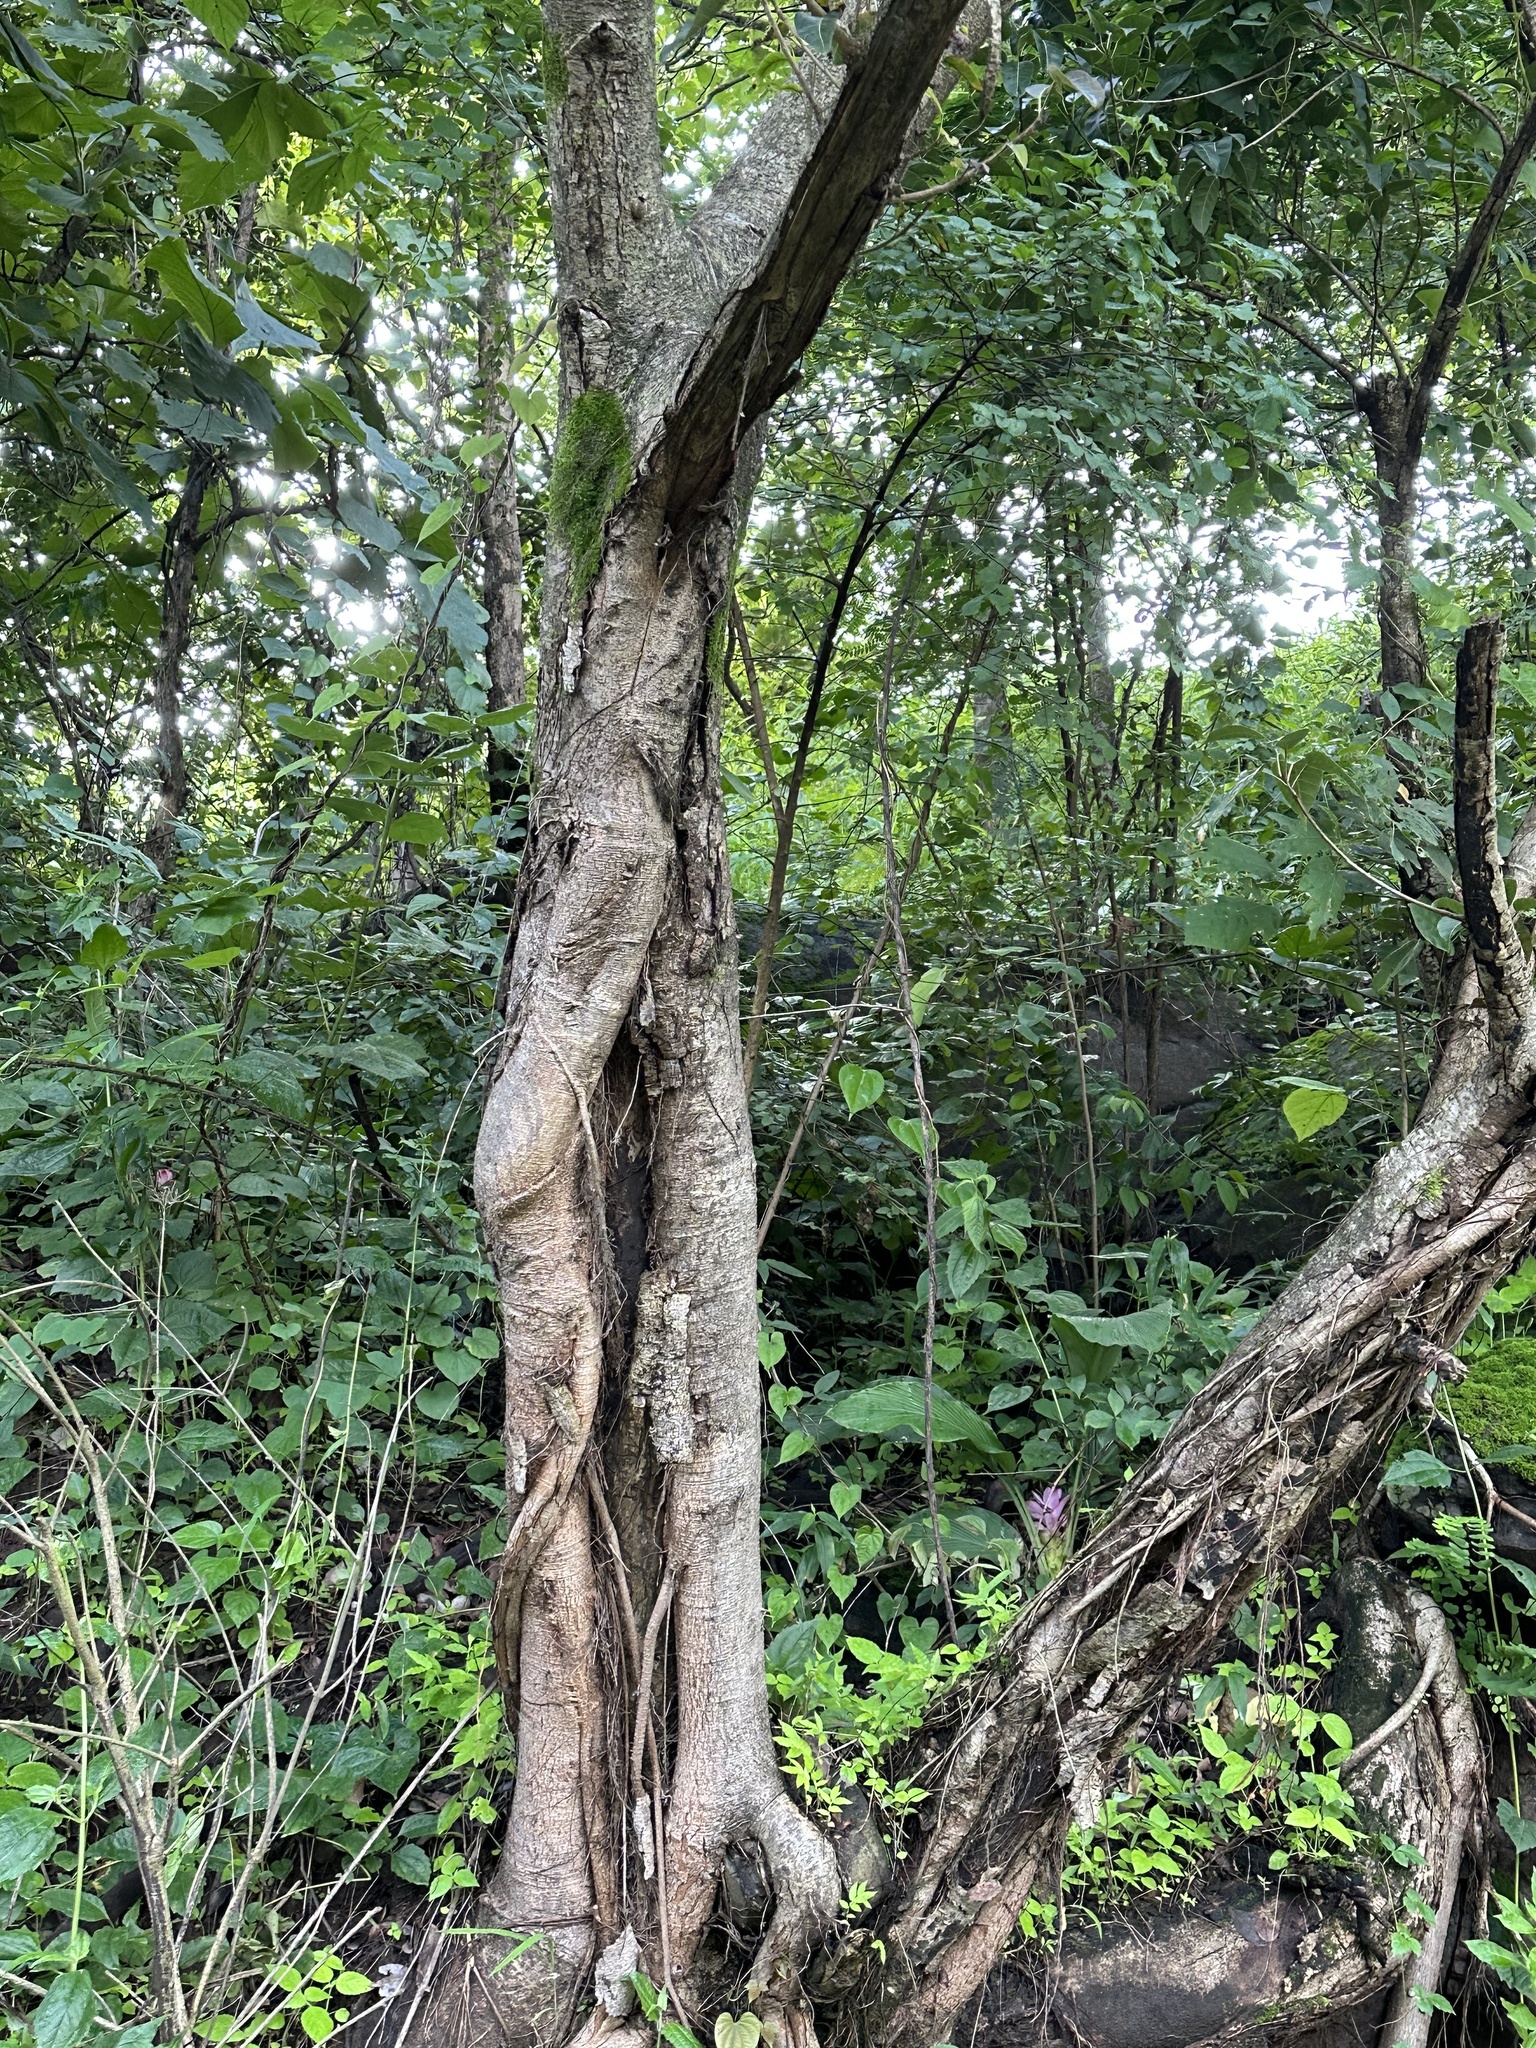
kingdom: Plantae
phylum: Tracheophyta
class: Magnoliopsida
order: Rosales
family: Moraceae
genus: Ficus
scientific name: Ficus virens
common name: Spotted fig
